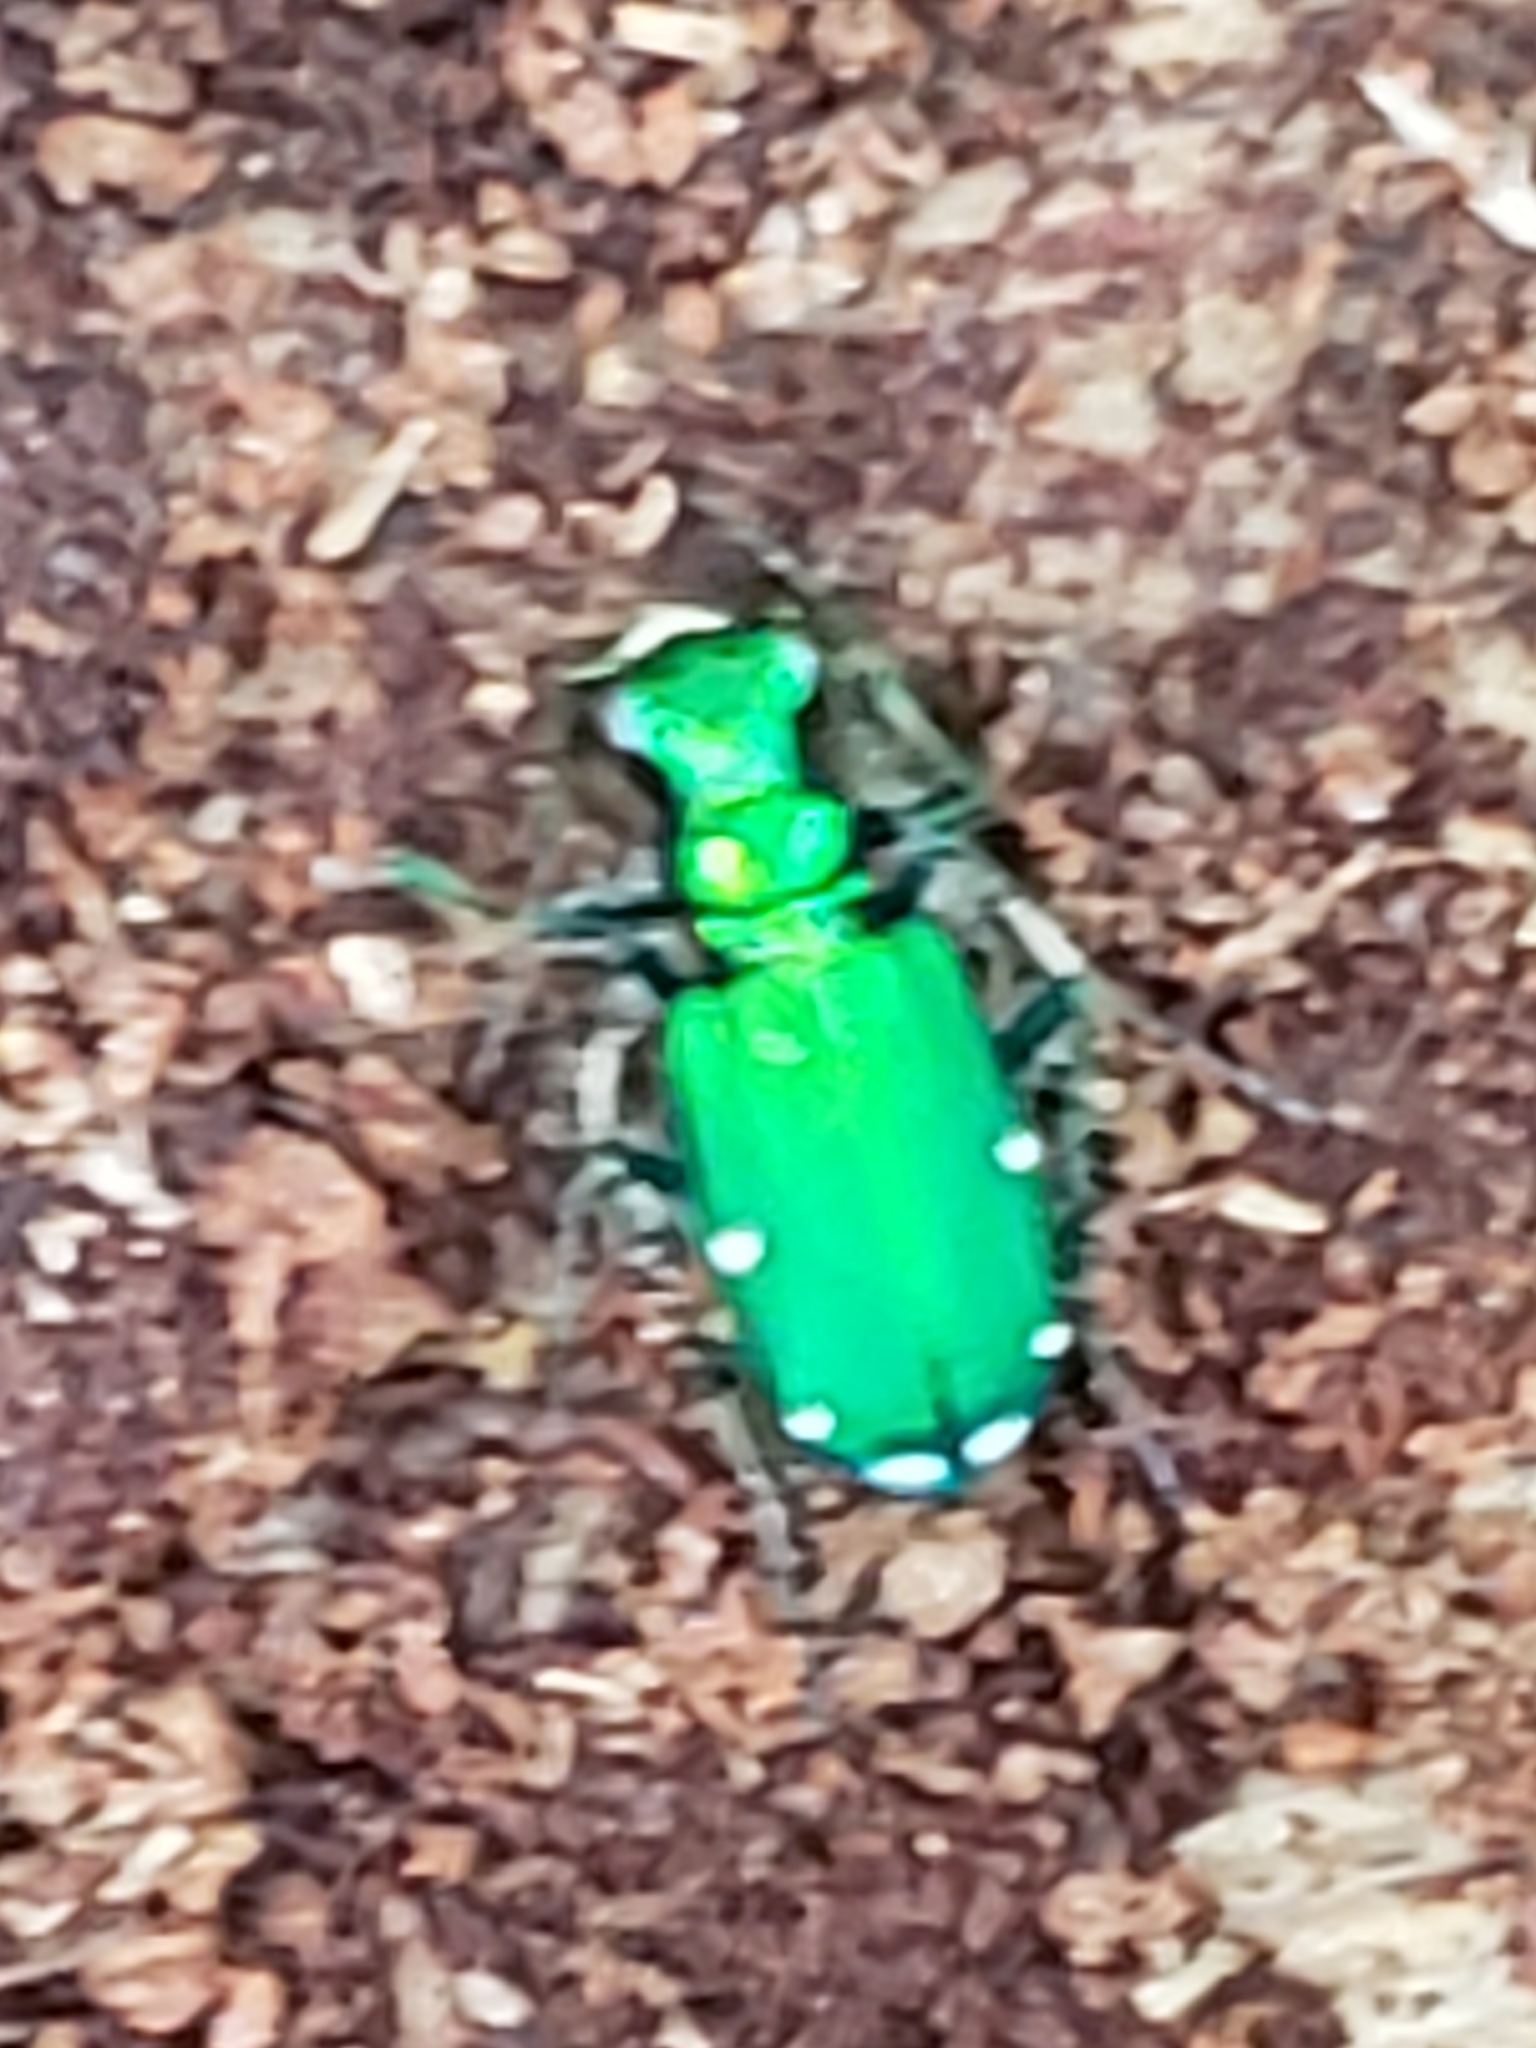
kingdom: Animalia
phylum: Arthropoda
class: Insecta
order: Coleoptera
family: Carabidae
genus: Cicindela
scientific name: Cicindela sexguttata
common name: Six-spotted tiger beetle
